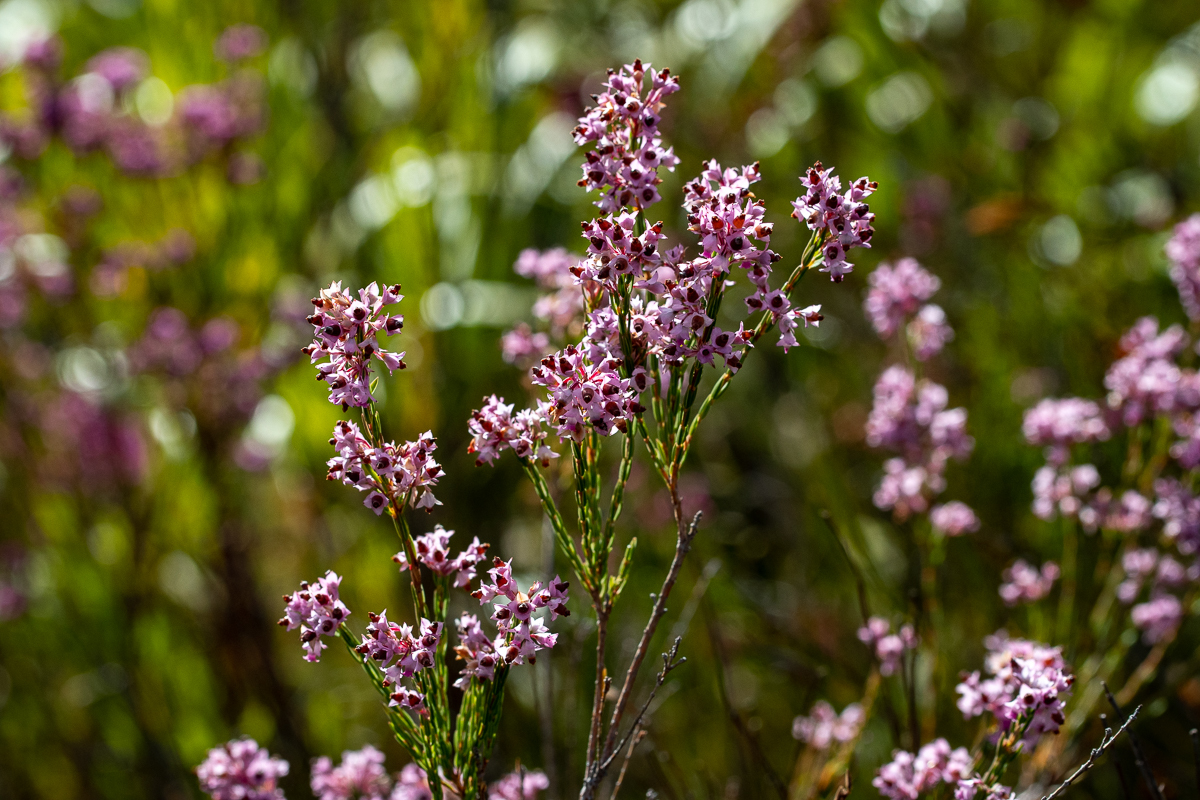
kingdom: Plantae
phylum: Tracheophyta
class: Magnoliopsida
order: Ericales
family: Ericaceae
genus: Erica
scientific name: Erica corifolia
